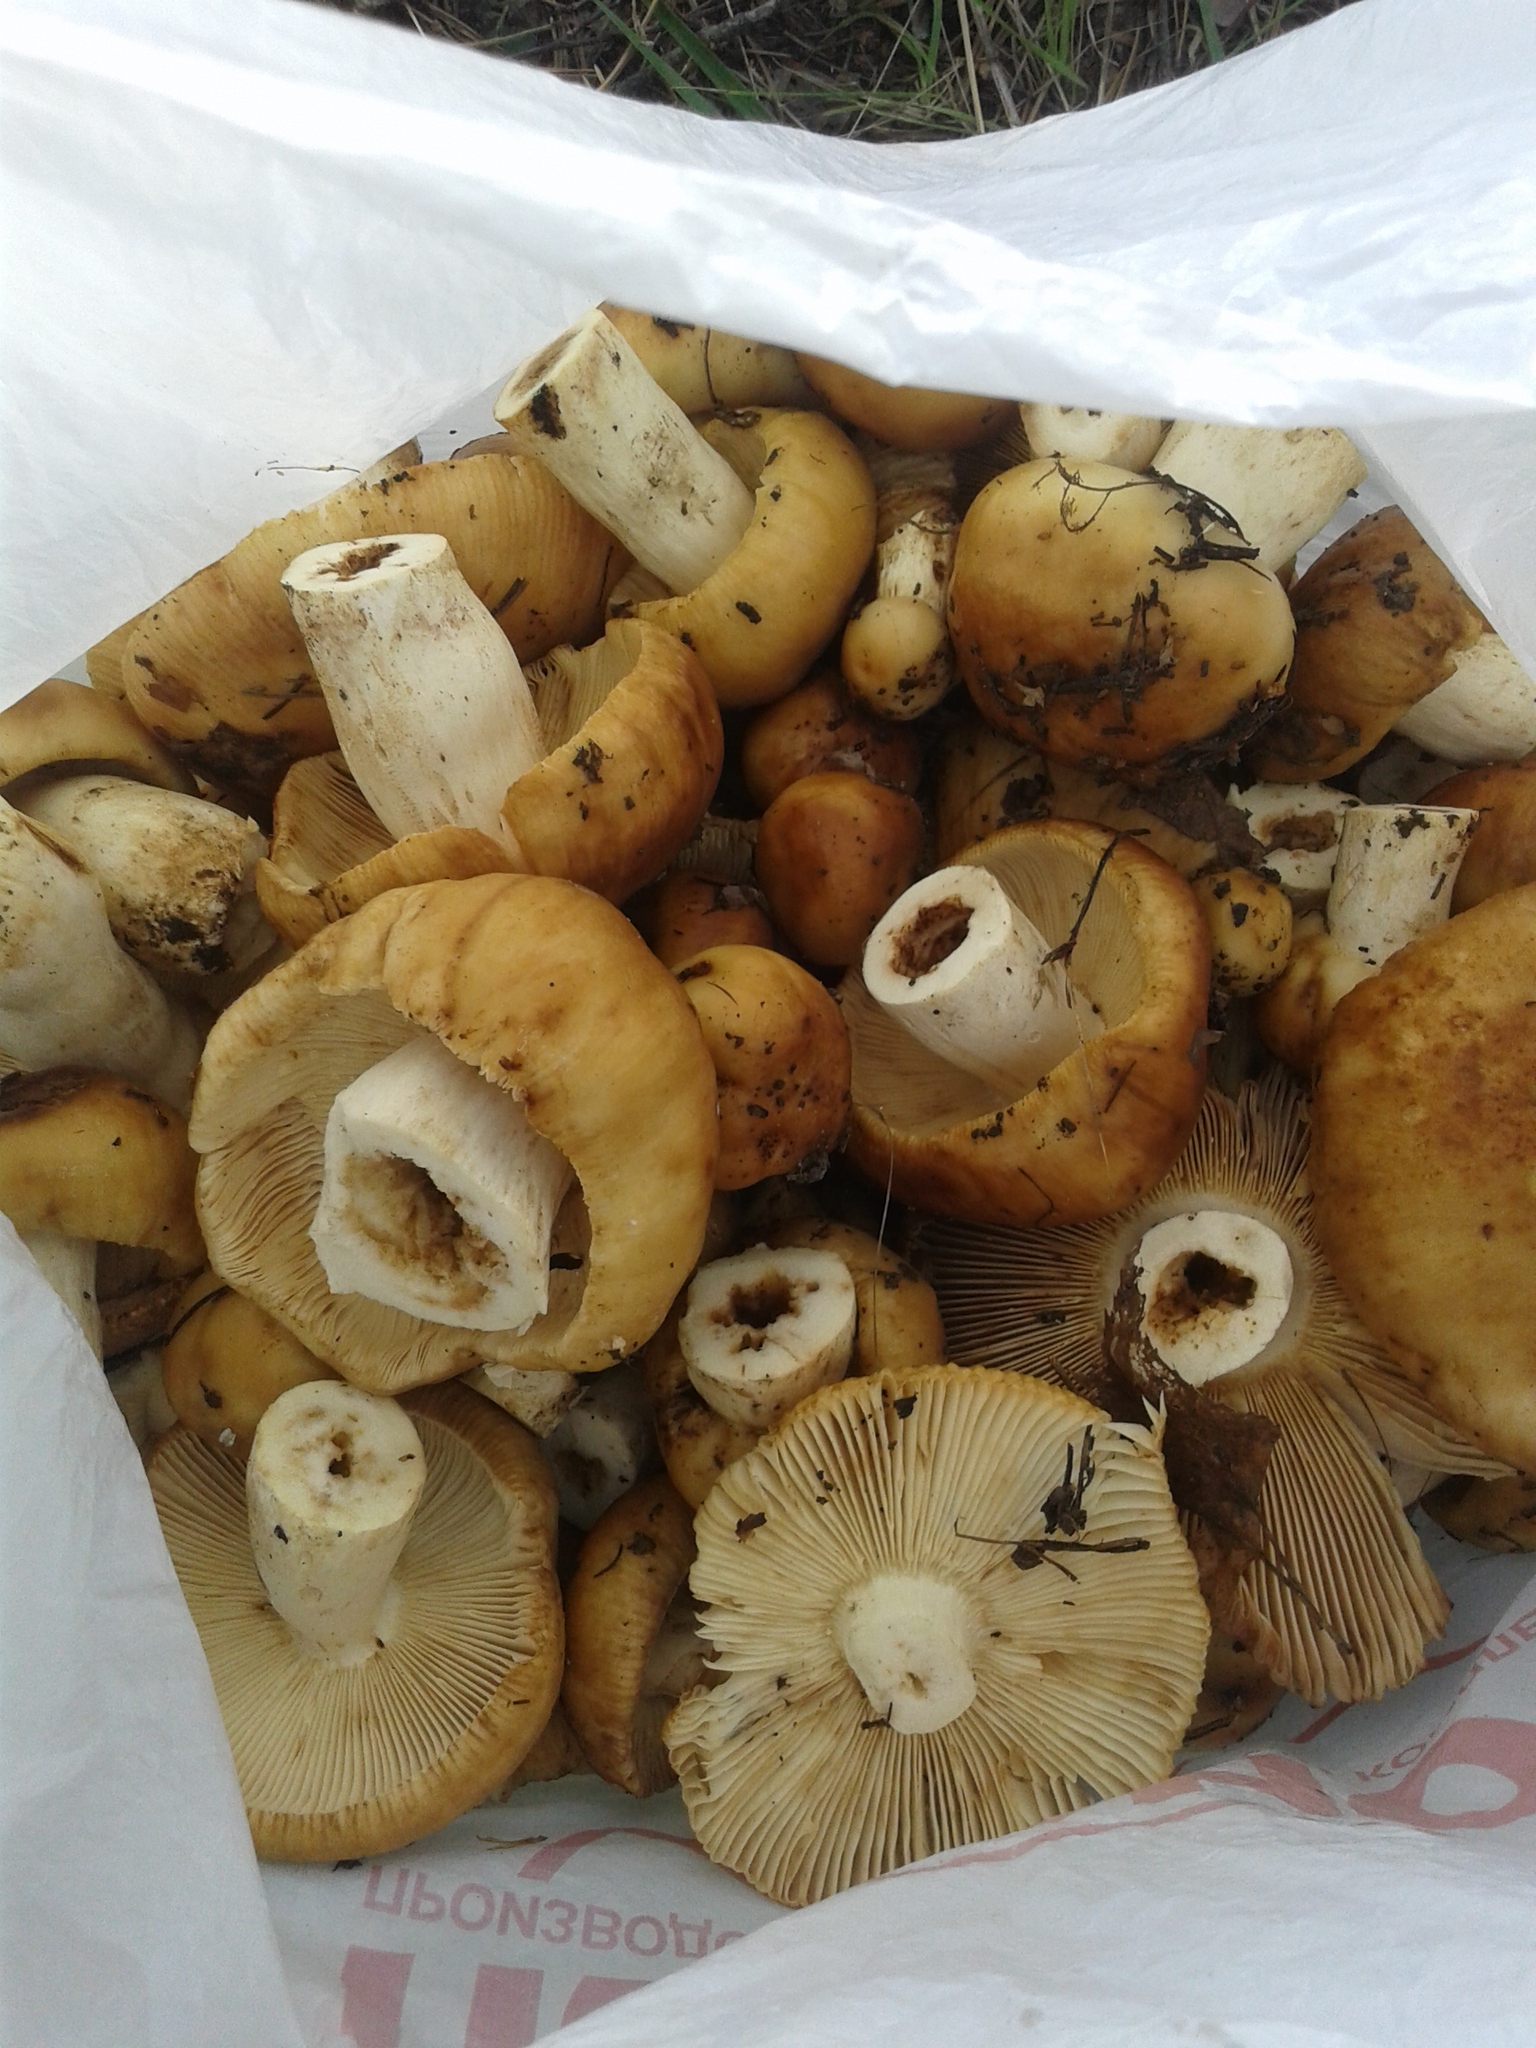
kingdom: Fungi
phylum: Basidiomycota
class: Agaricomycetes
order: Russulales
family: Russulaceae
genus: Russula
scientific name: Russula foetens
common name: Foetid russula
